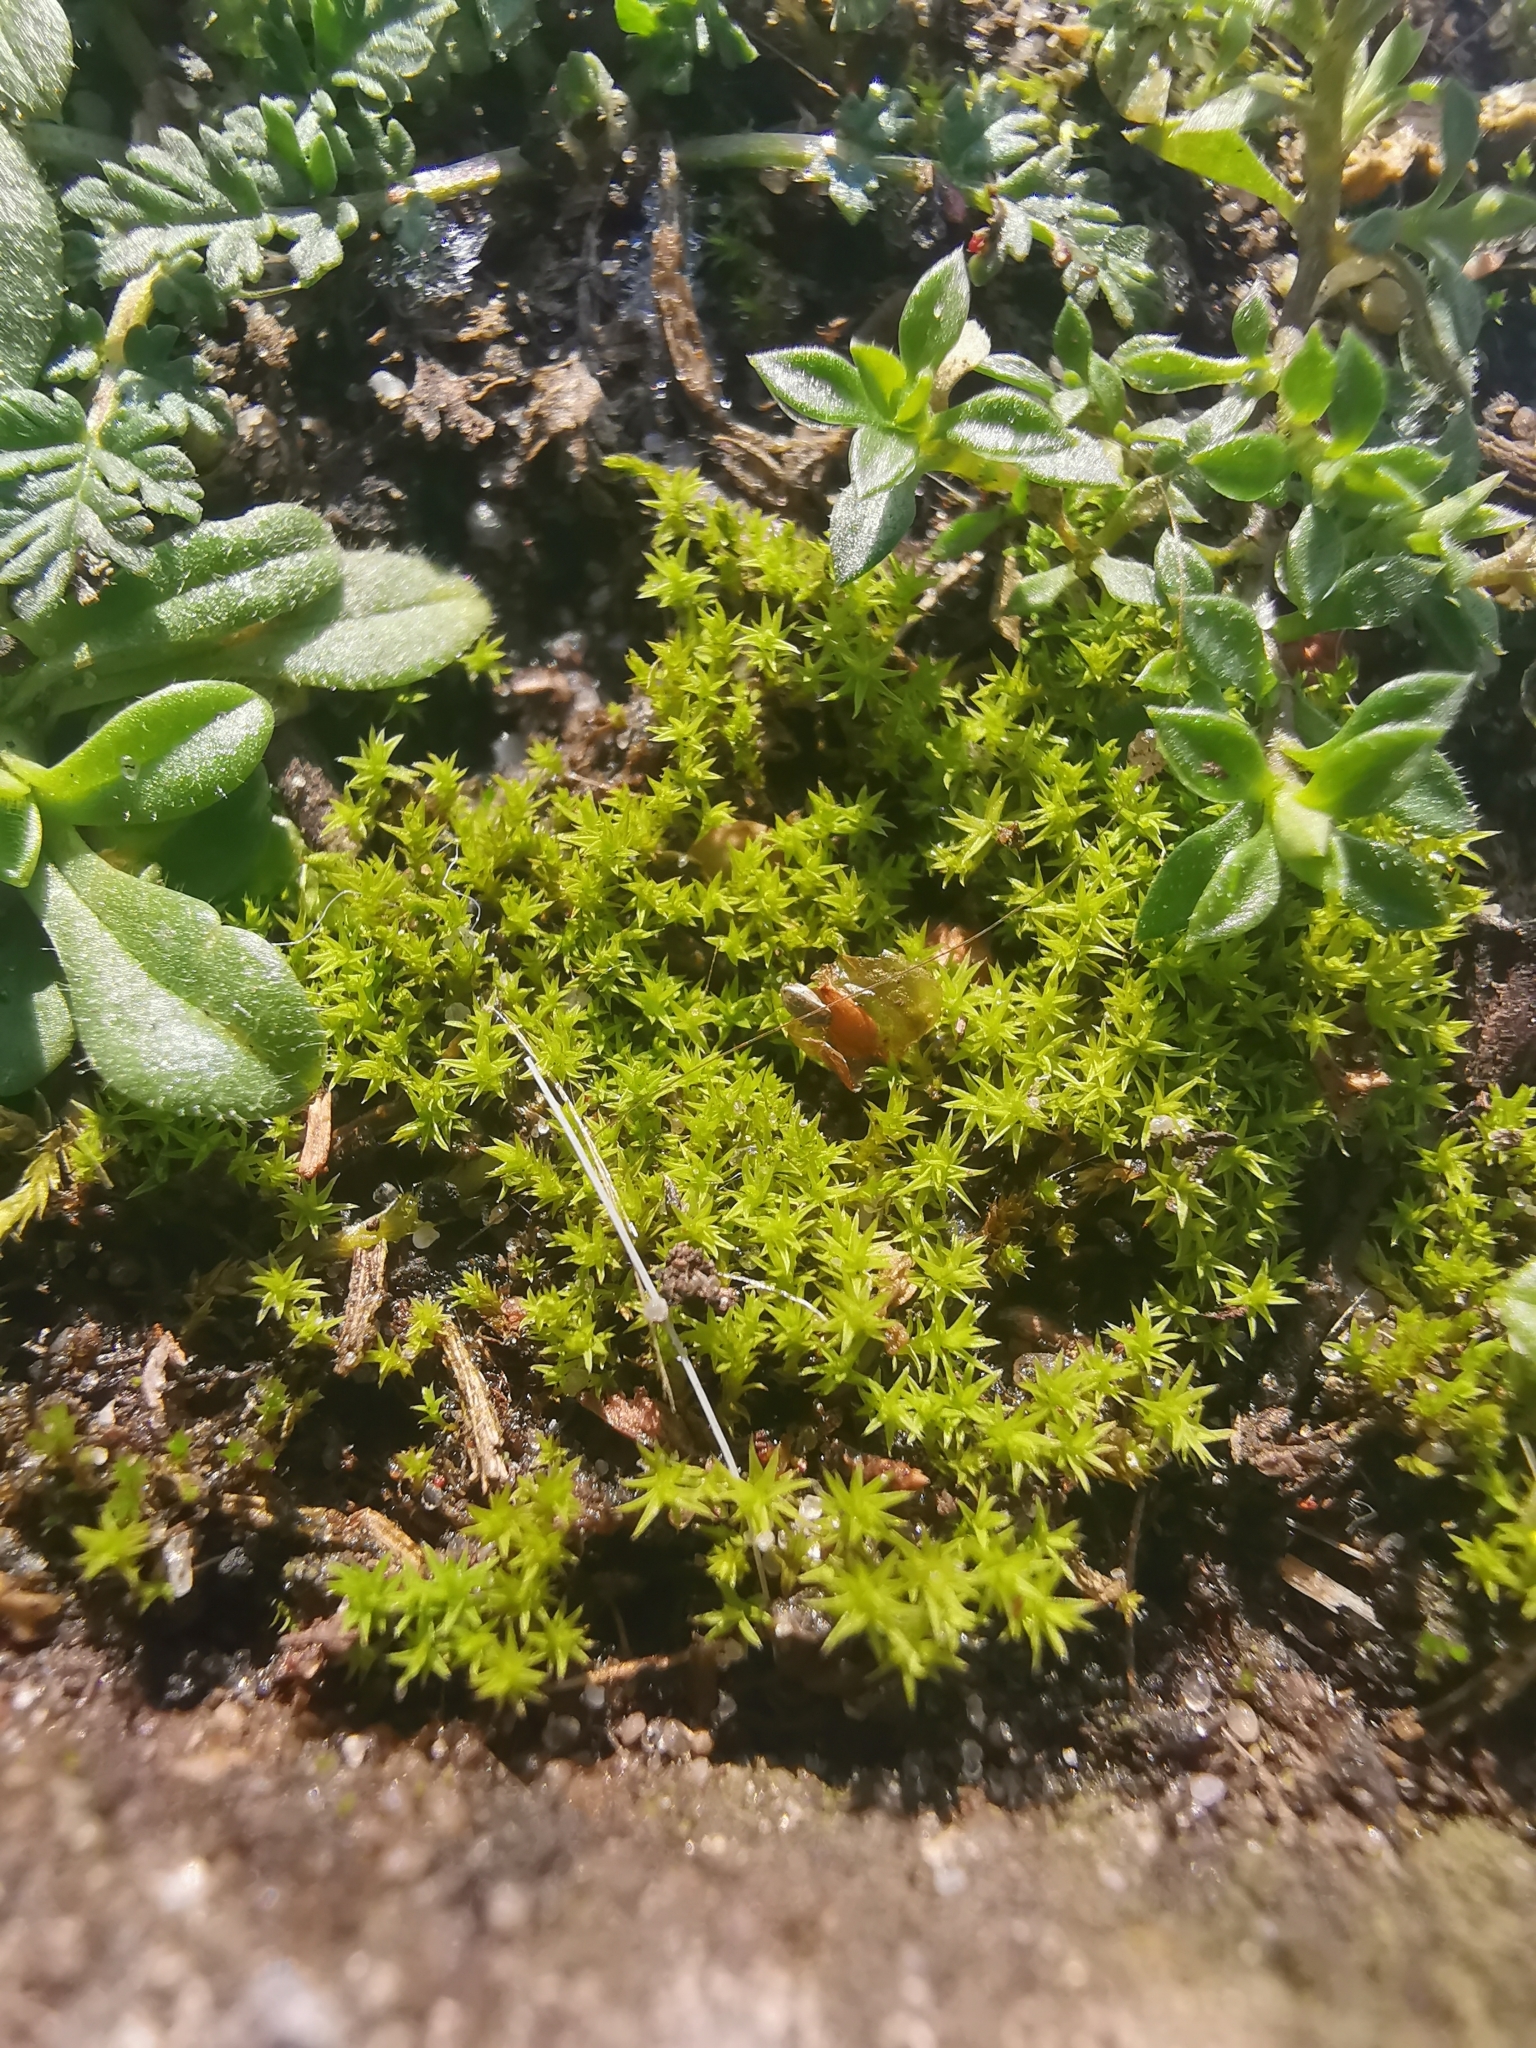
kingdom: Plantae
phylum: Bryophyta
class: Bryopsida
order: Pottiales
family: Pottiaceae
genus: Pseudocrossidium
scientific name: Pseudocrossidium hornschuchianum
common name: Hornschuch's beard-moss
